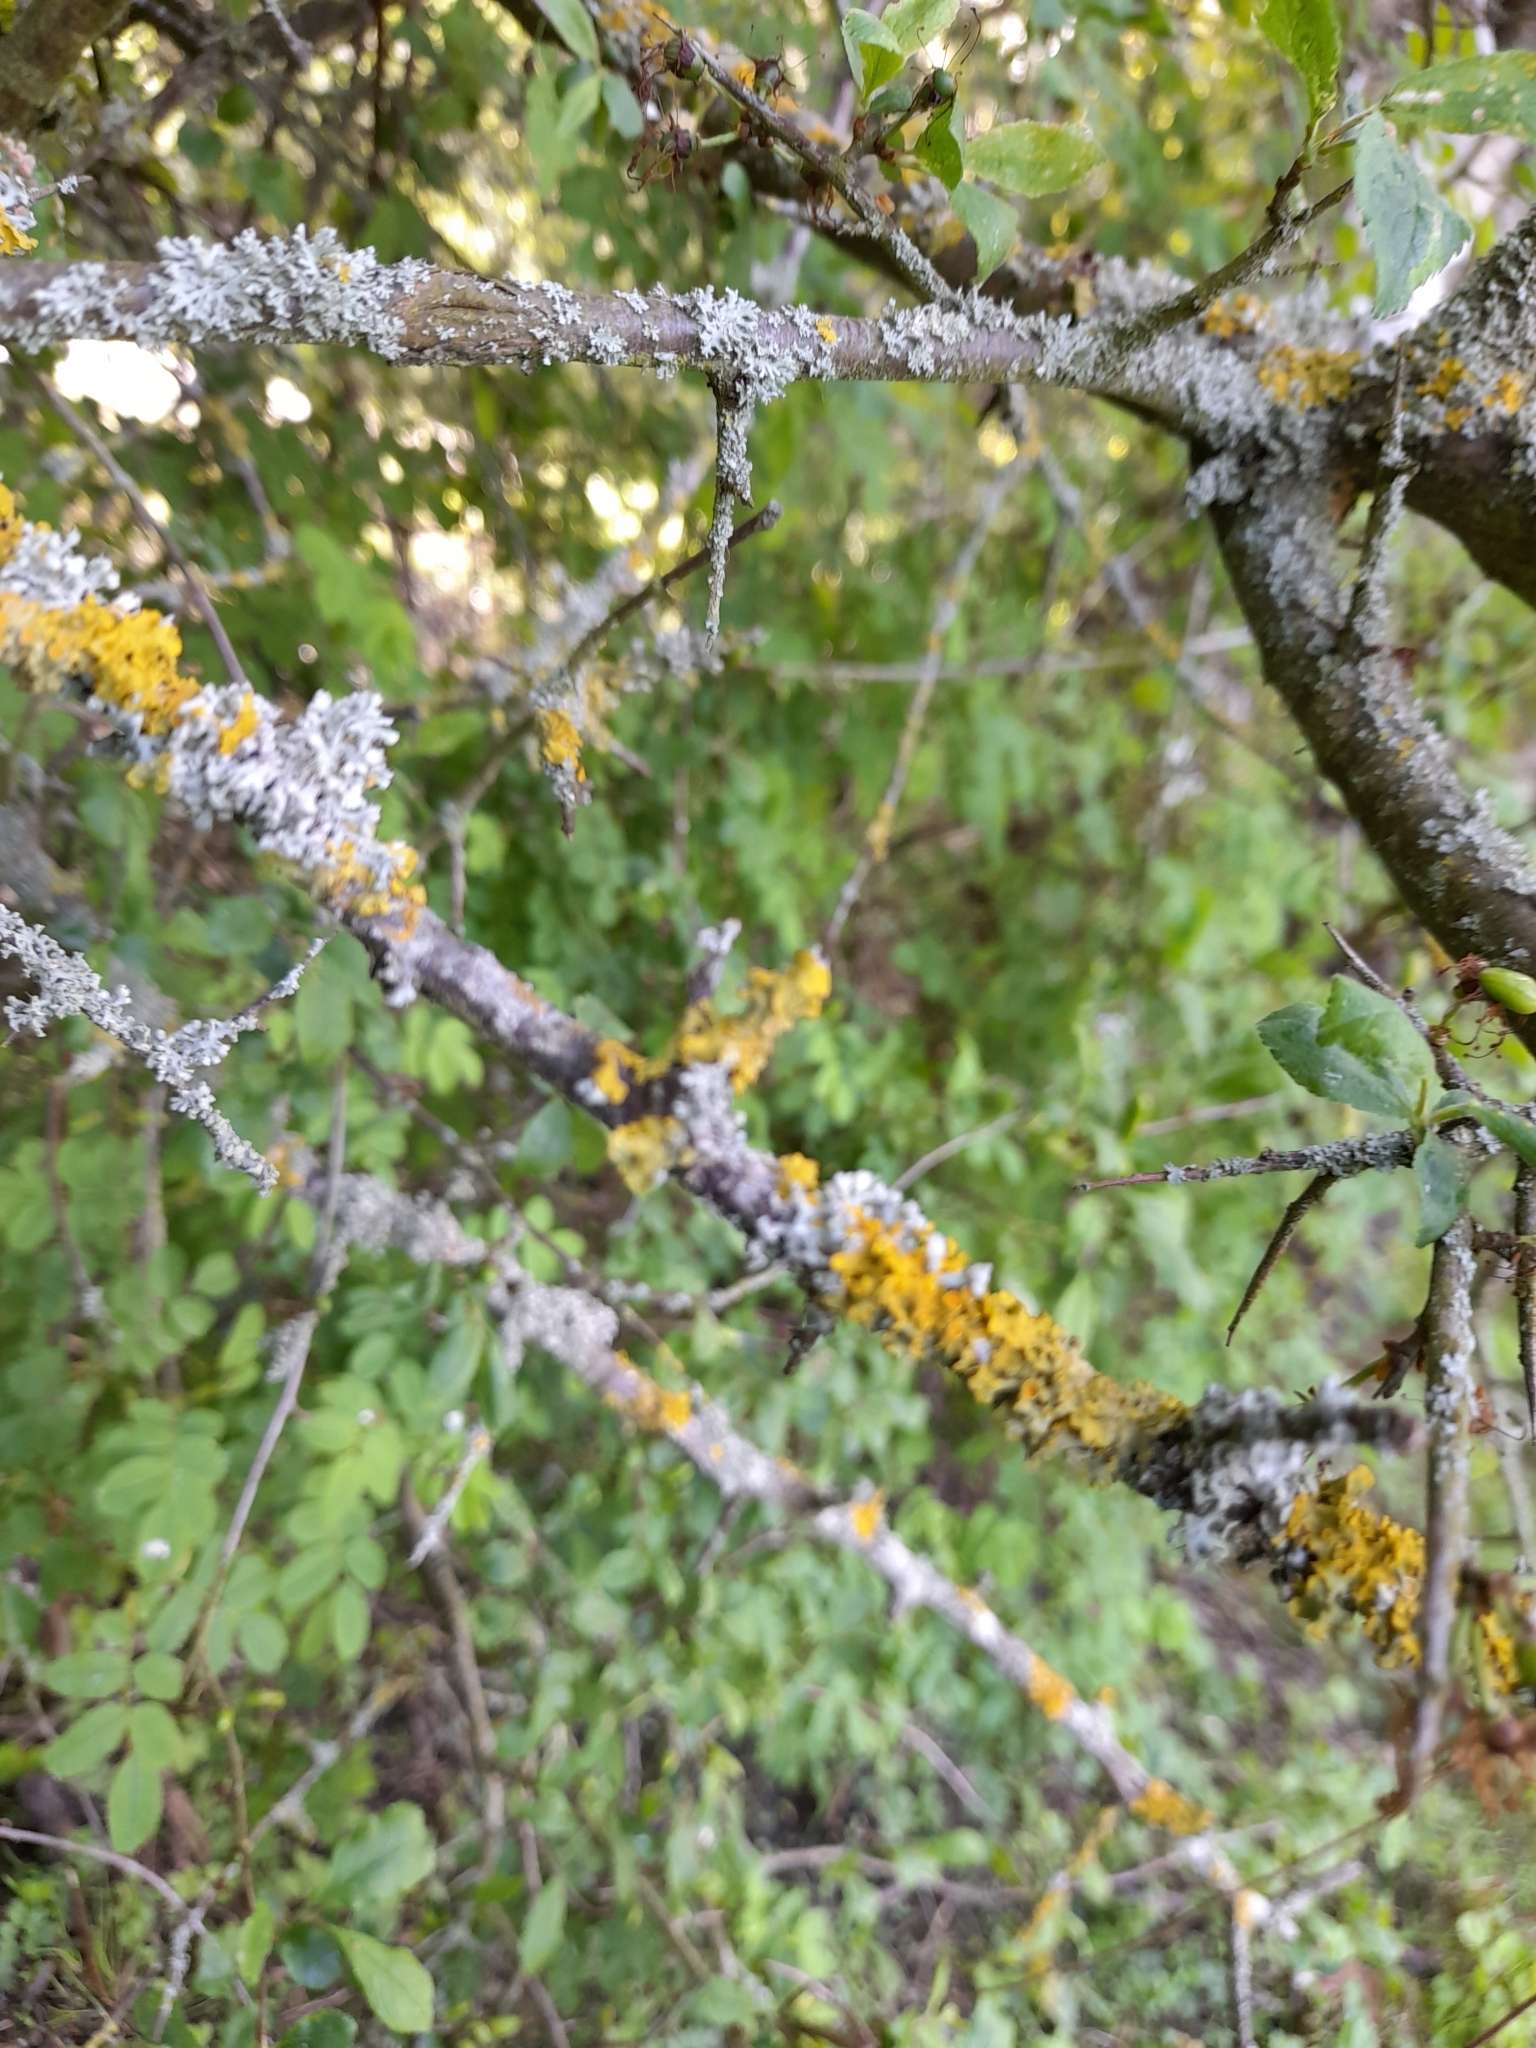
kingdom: Fungi
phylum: Ascomycota
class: Lecanoromycetes
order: Teloschistales
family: Teloschistaceae
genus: Xanthoria
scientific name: Xanthoria parietina
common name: Common orange lichen
